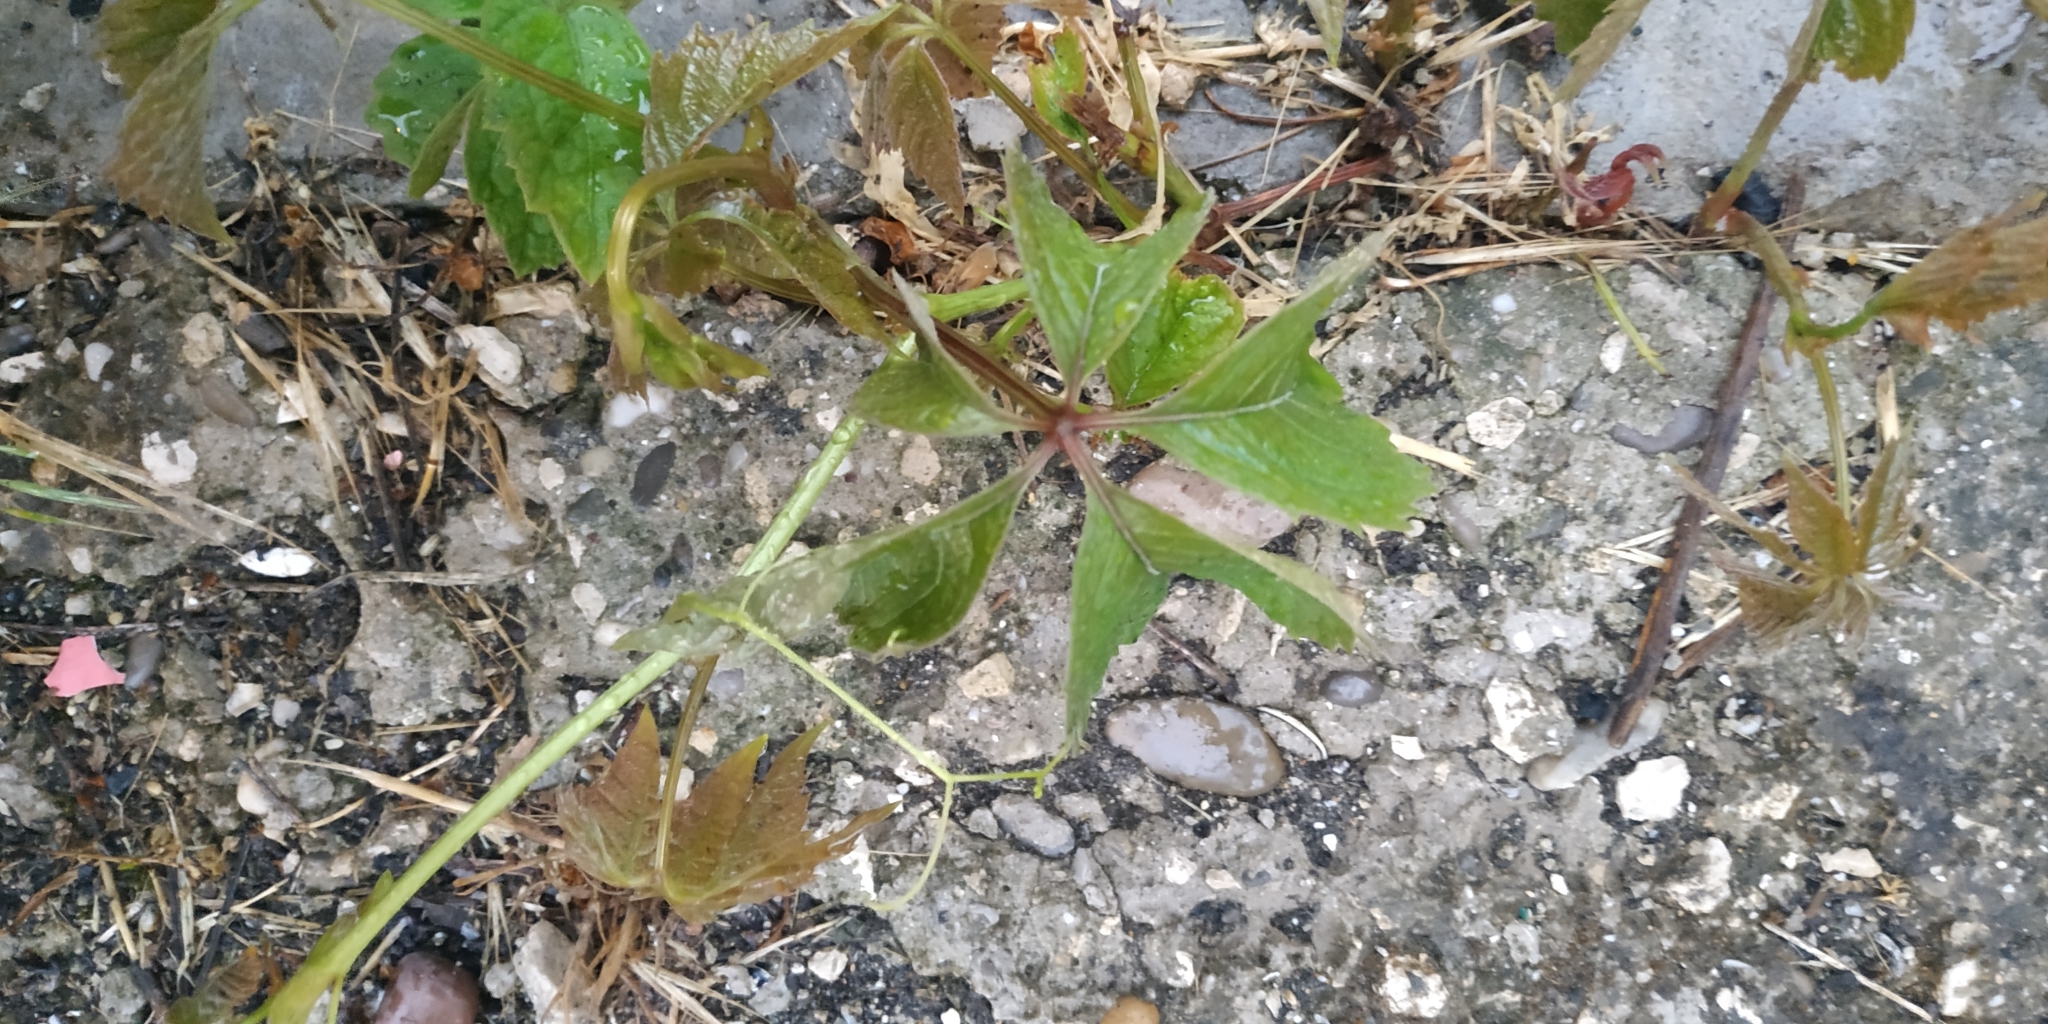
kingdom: Plantae
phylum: Tracheophyta
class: Magnoliopsida
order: Vitales
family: Vitaceae
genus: Parthenocissus
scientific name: Parthenocissus inserta
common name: False virginia-creeper
